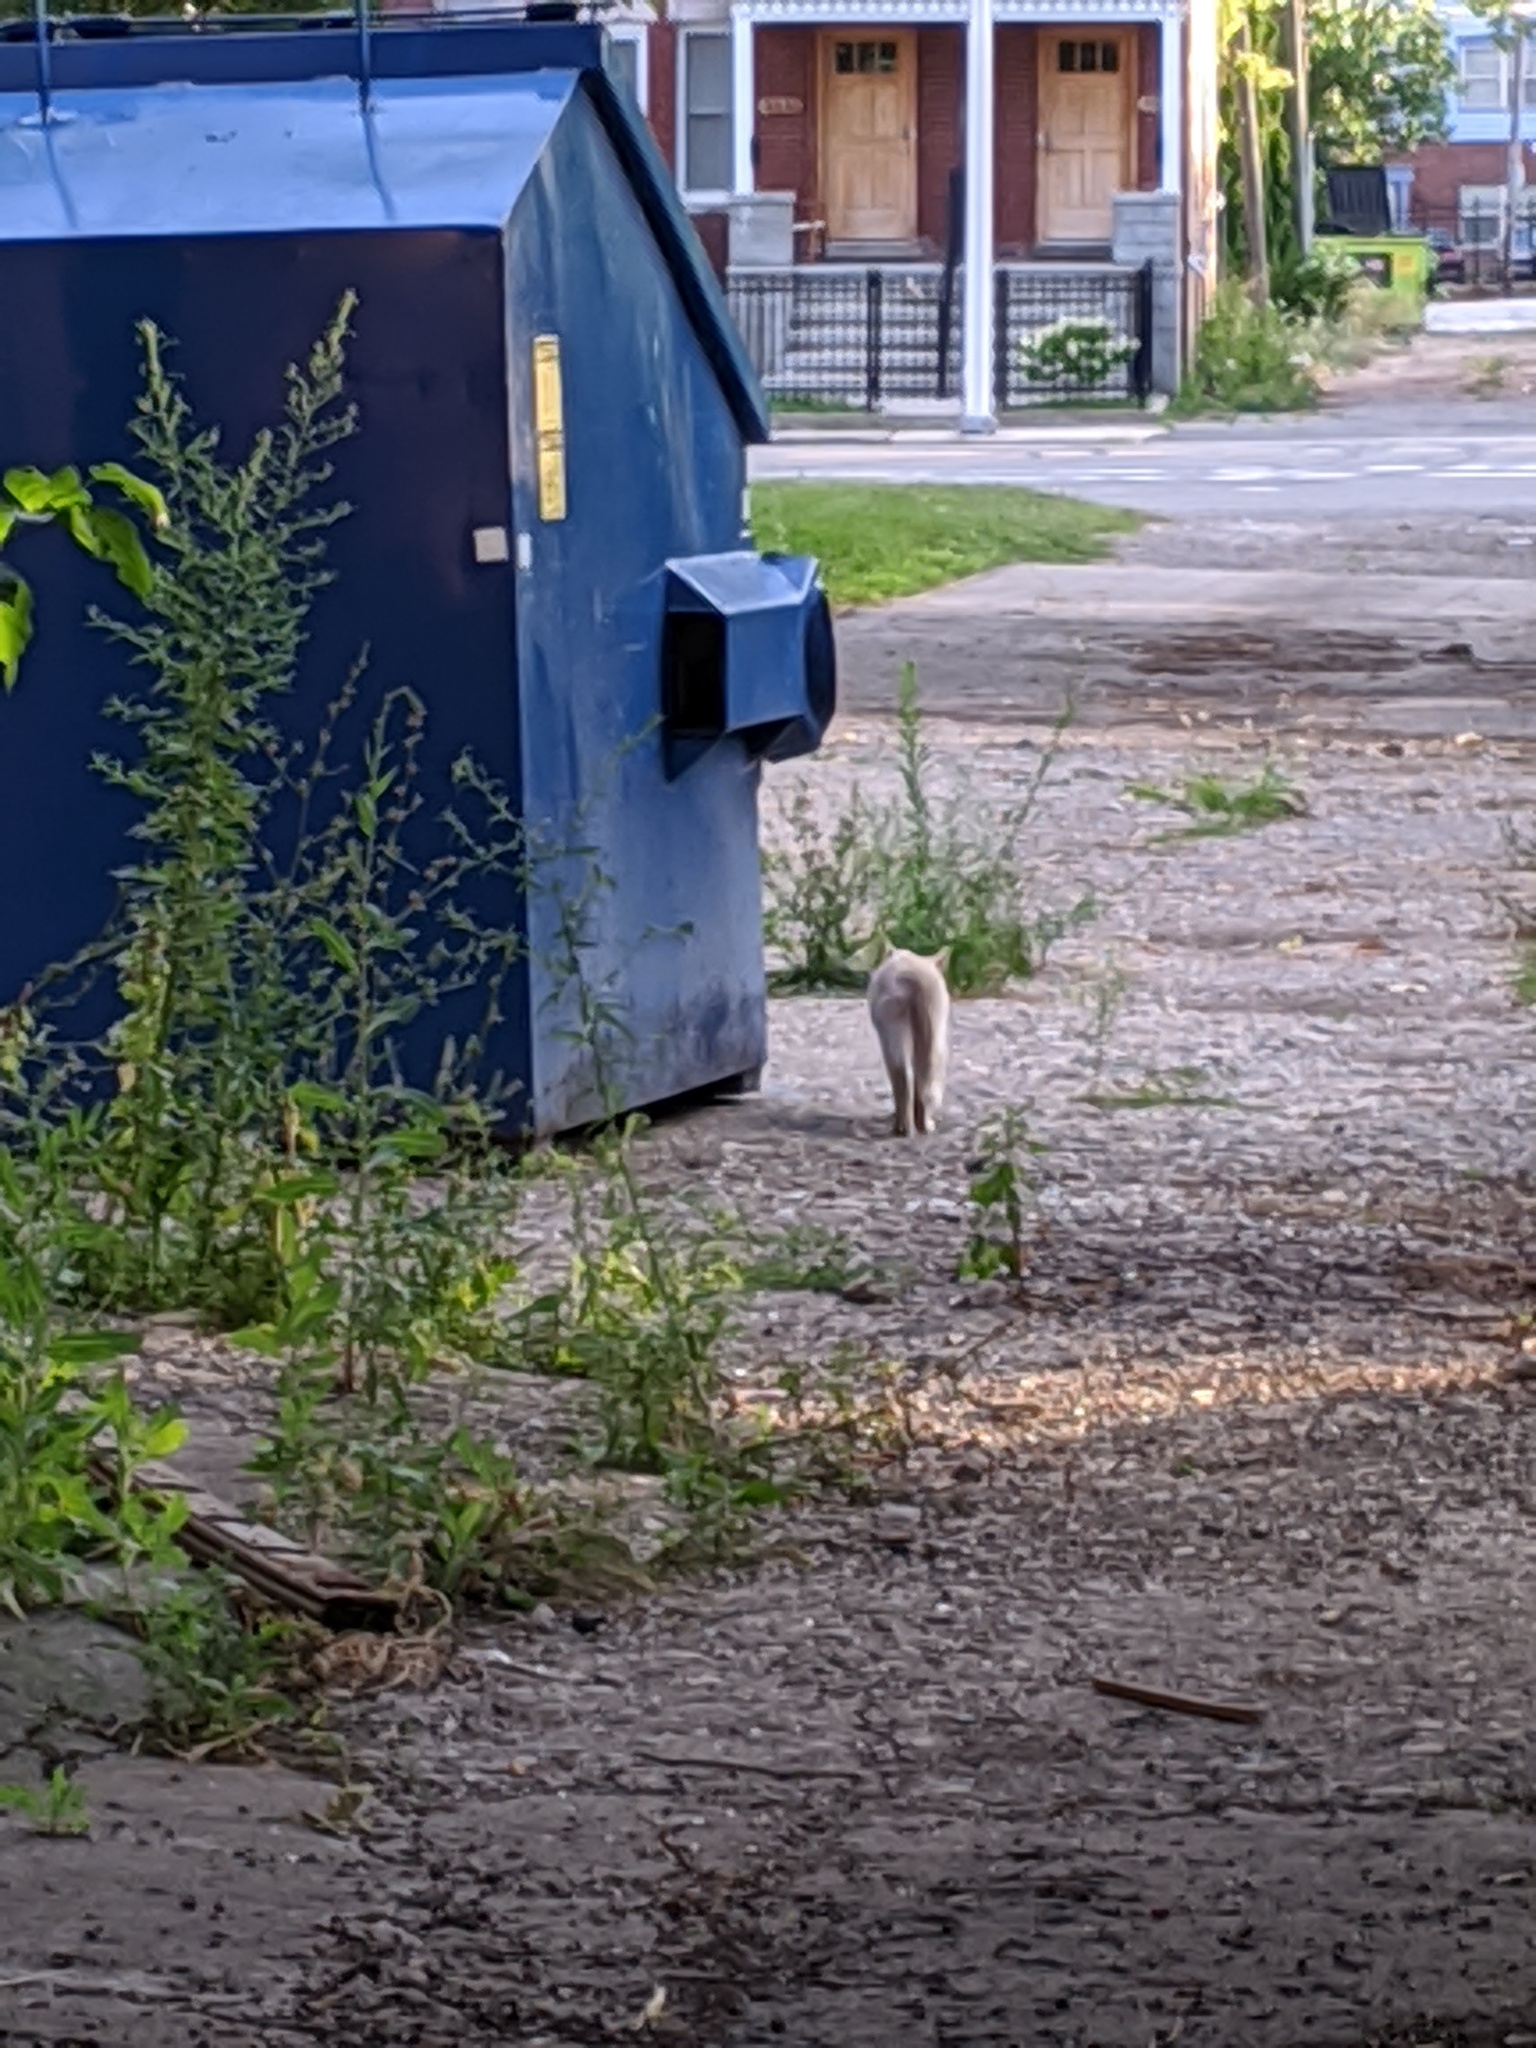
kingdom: Animalia
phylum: Chordata
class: Mammalia
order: Carnivora
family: Felidae
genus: Felis
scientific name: Felis catus
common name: Domestic cat
